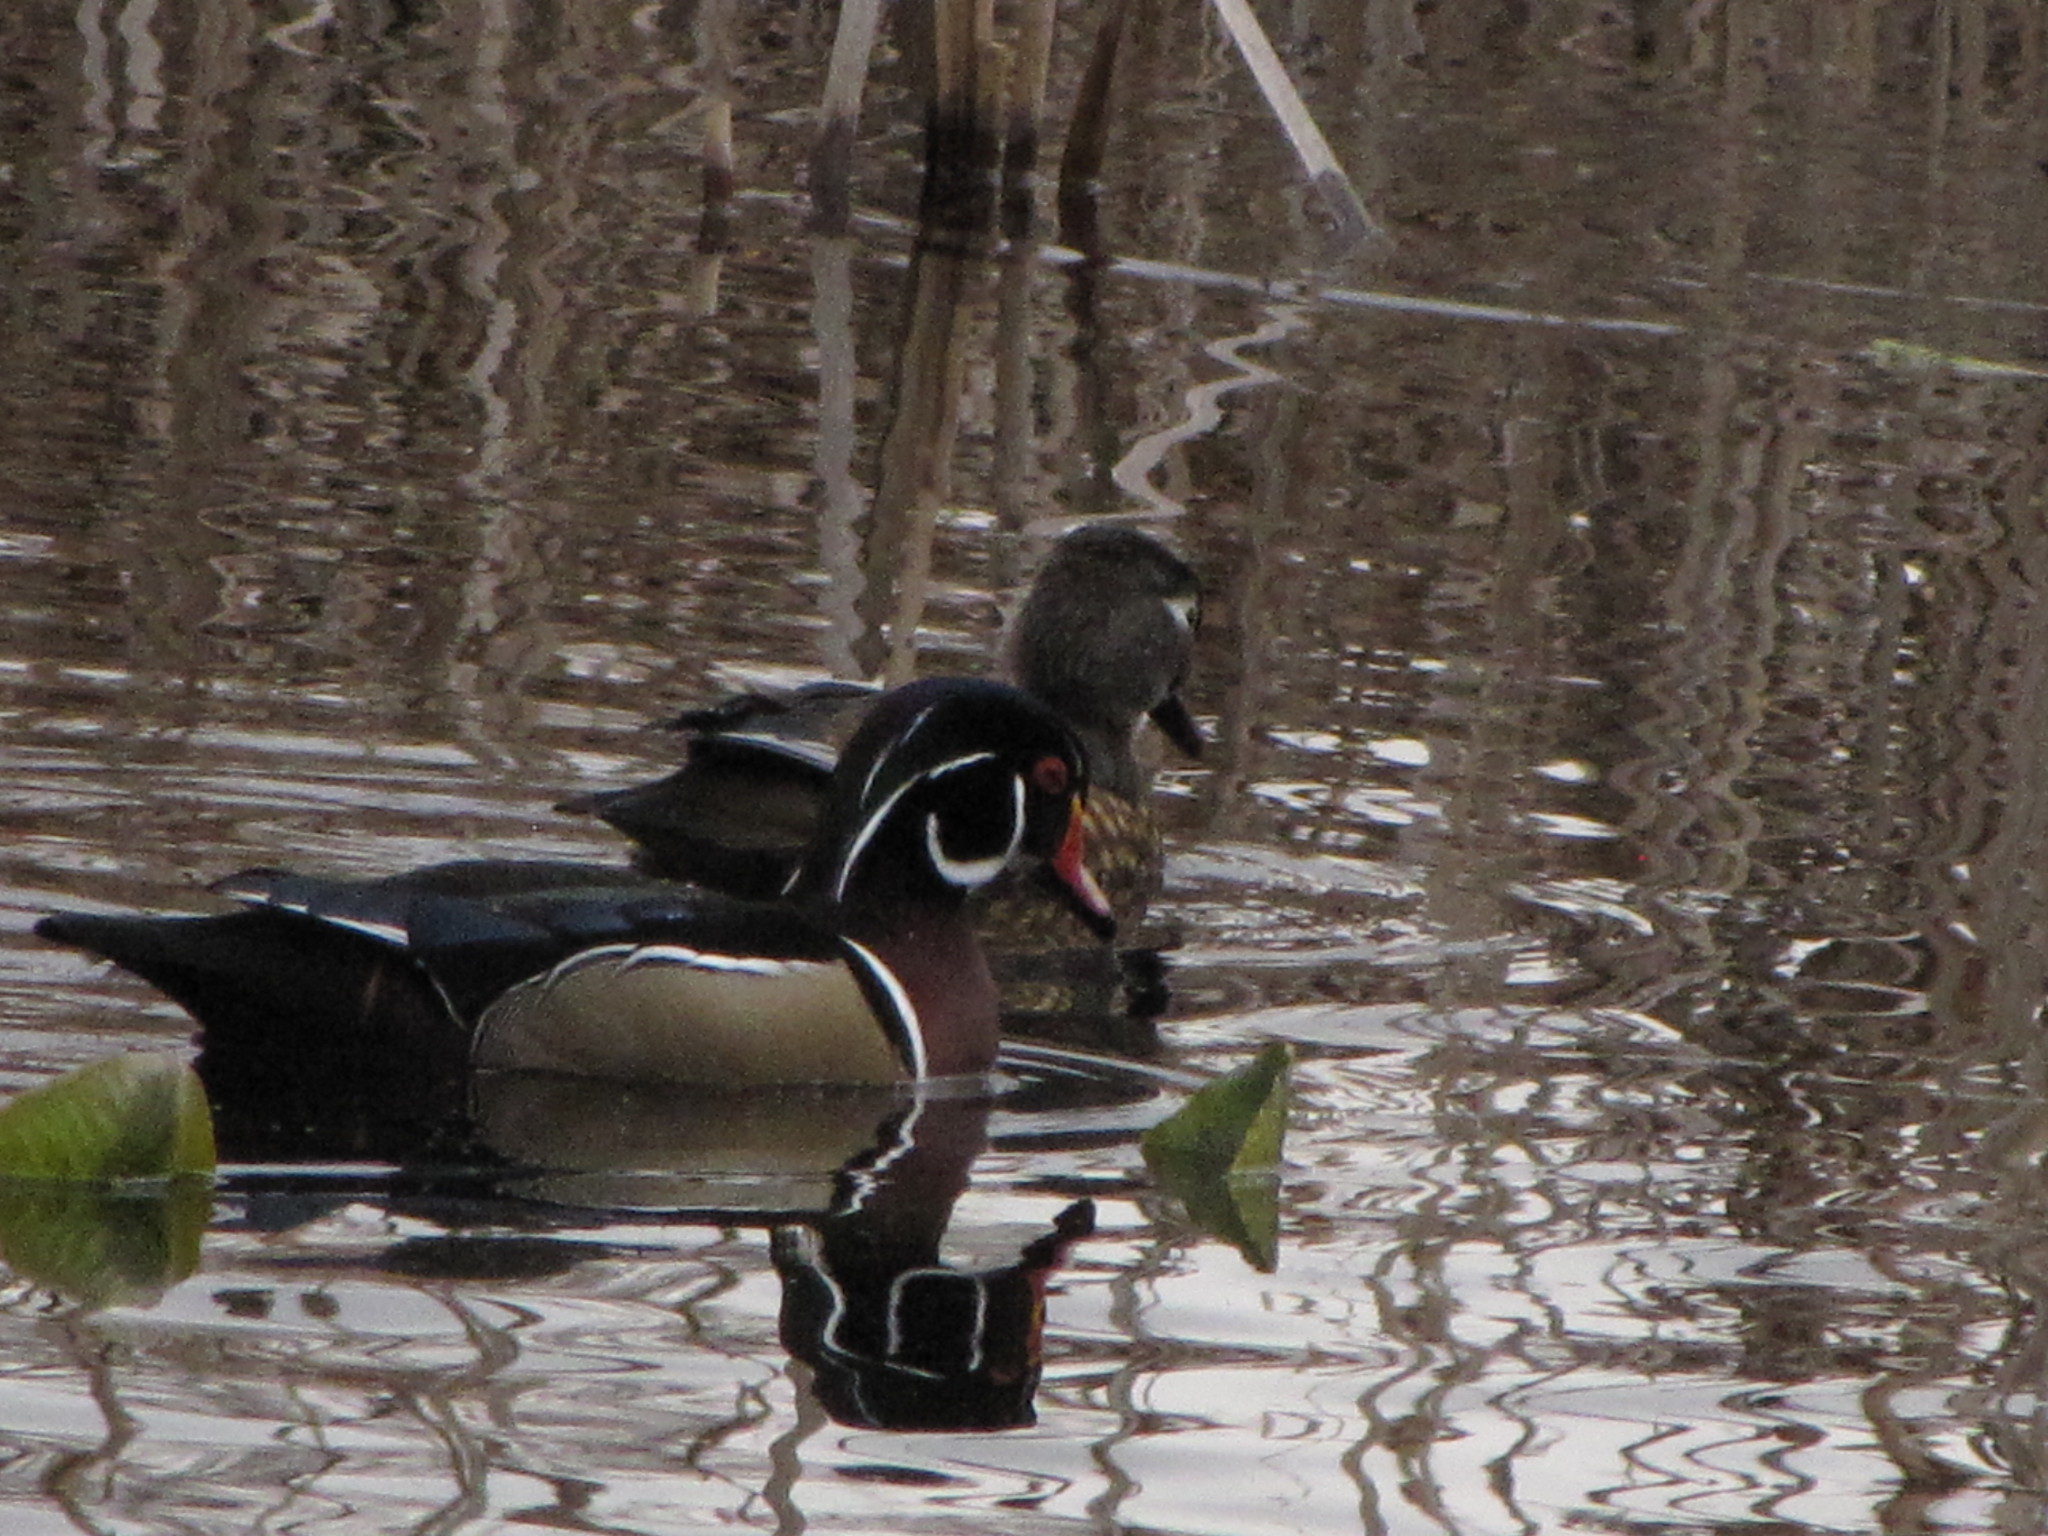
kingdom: Animalia
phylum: Chordata
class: Aves
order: Anseriformes
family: Anatidae
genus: Aix
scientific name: Aix sponsa
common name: Wood duck
